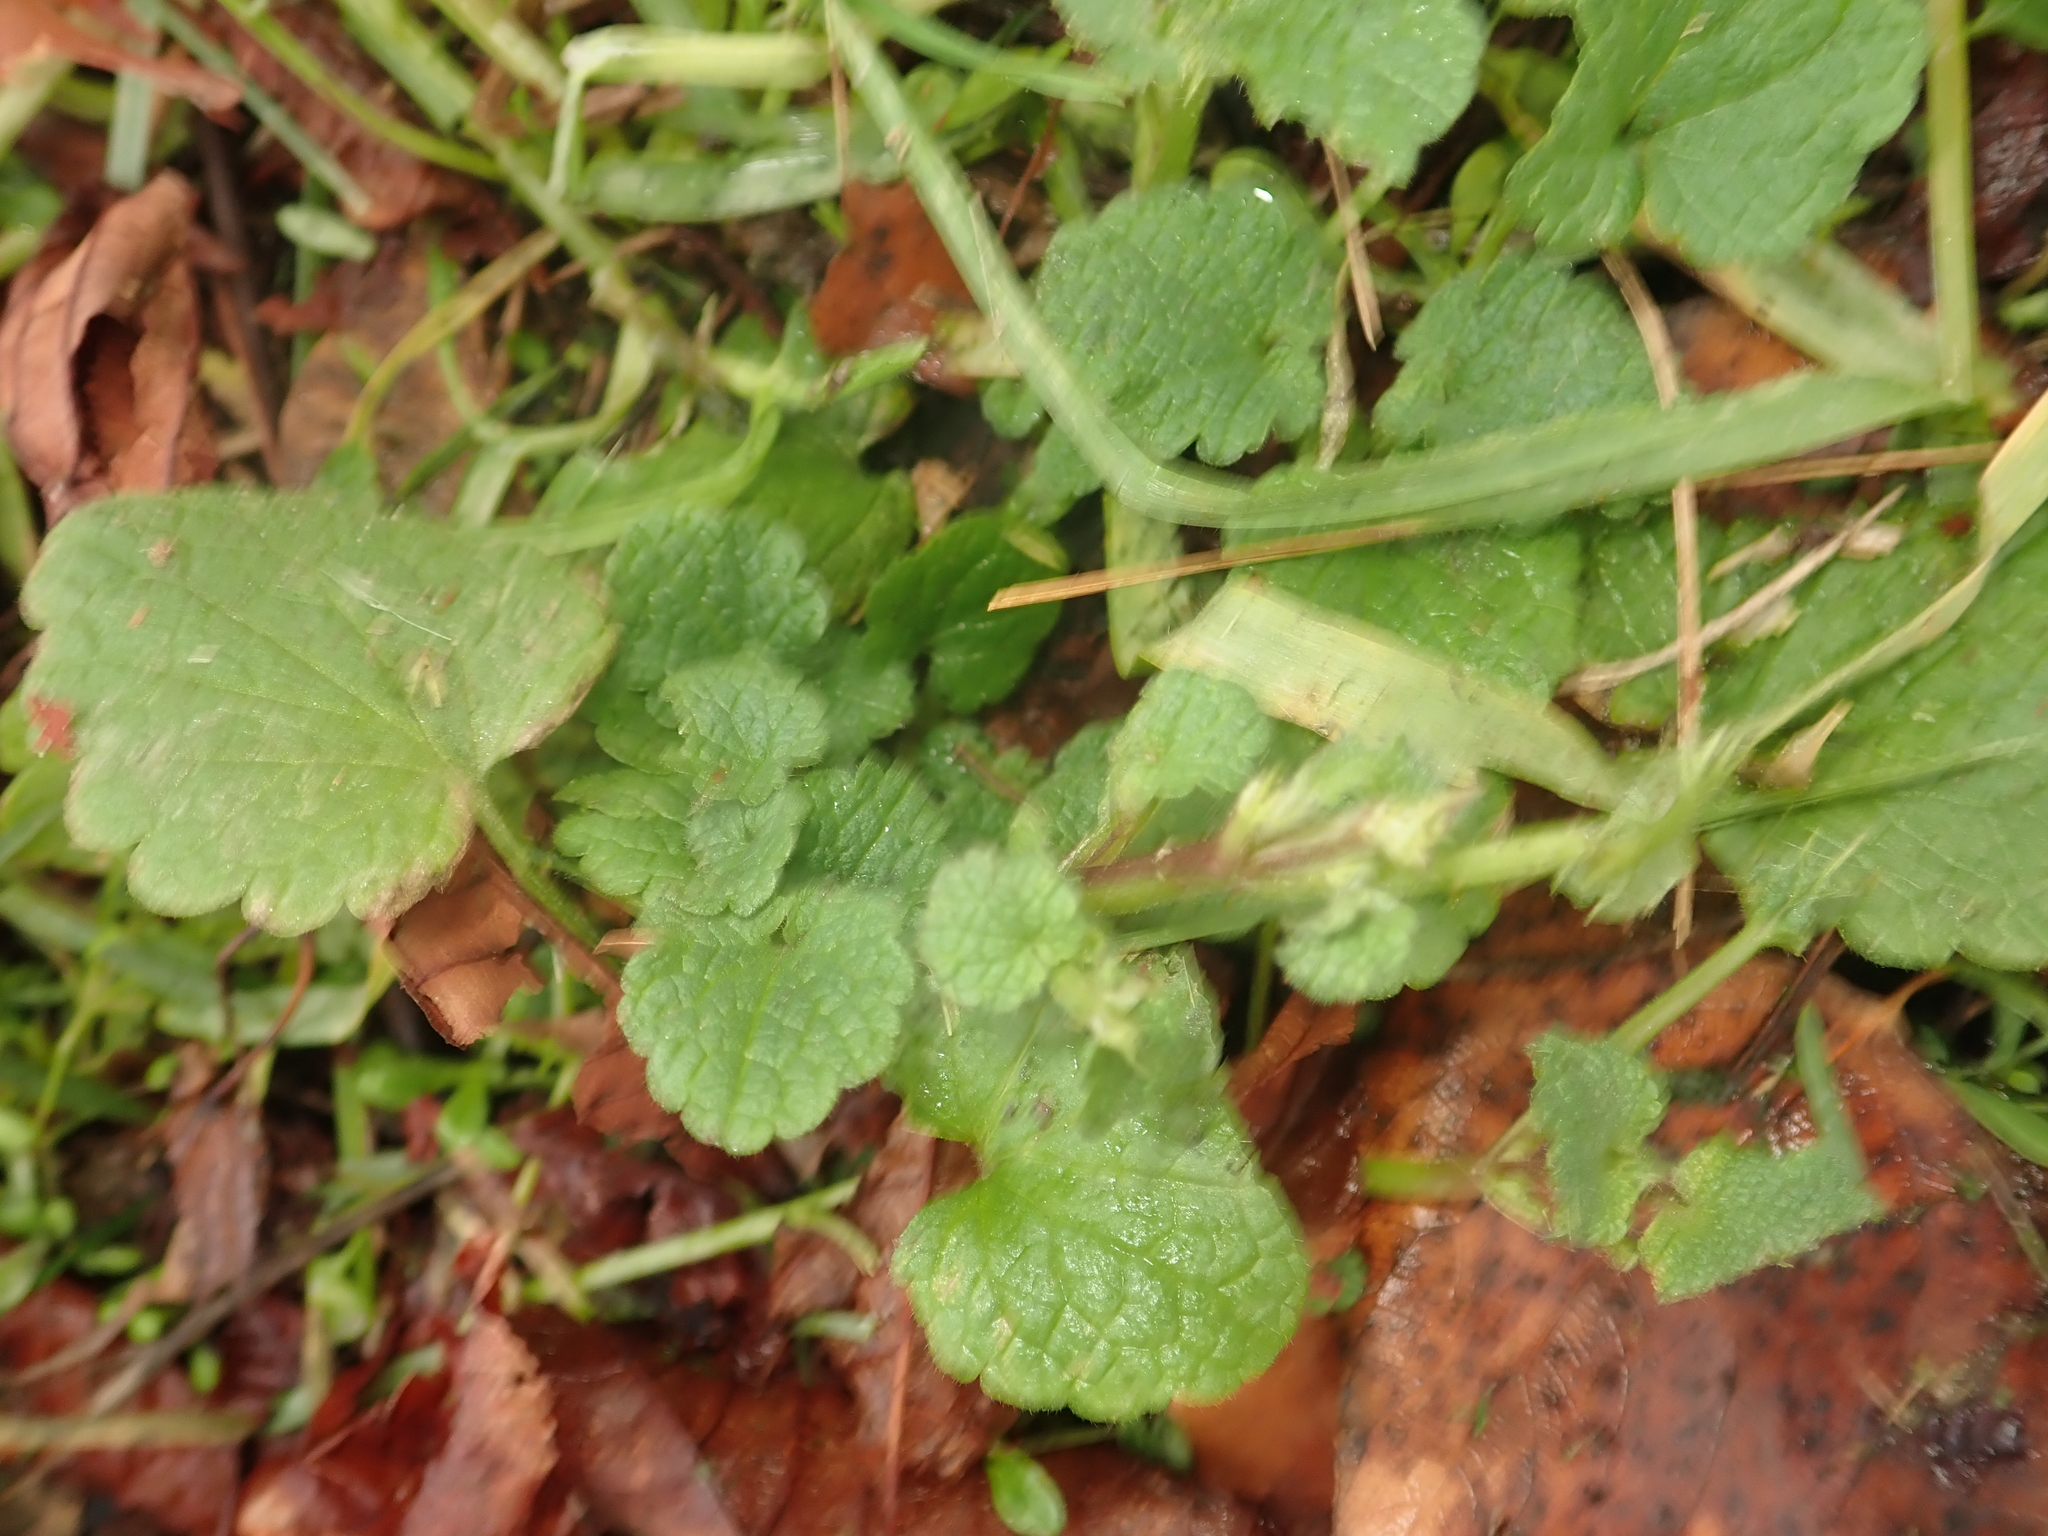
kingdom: Plantae
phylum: Tracheophyta
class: Magnoliopsida
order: Lamiales
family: Lamiaceae
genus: Lamium
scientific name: Lamium purpureum
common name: Red dead-nettle
